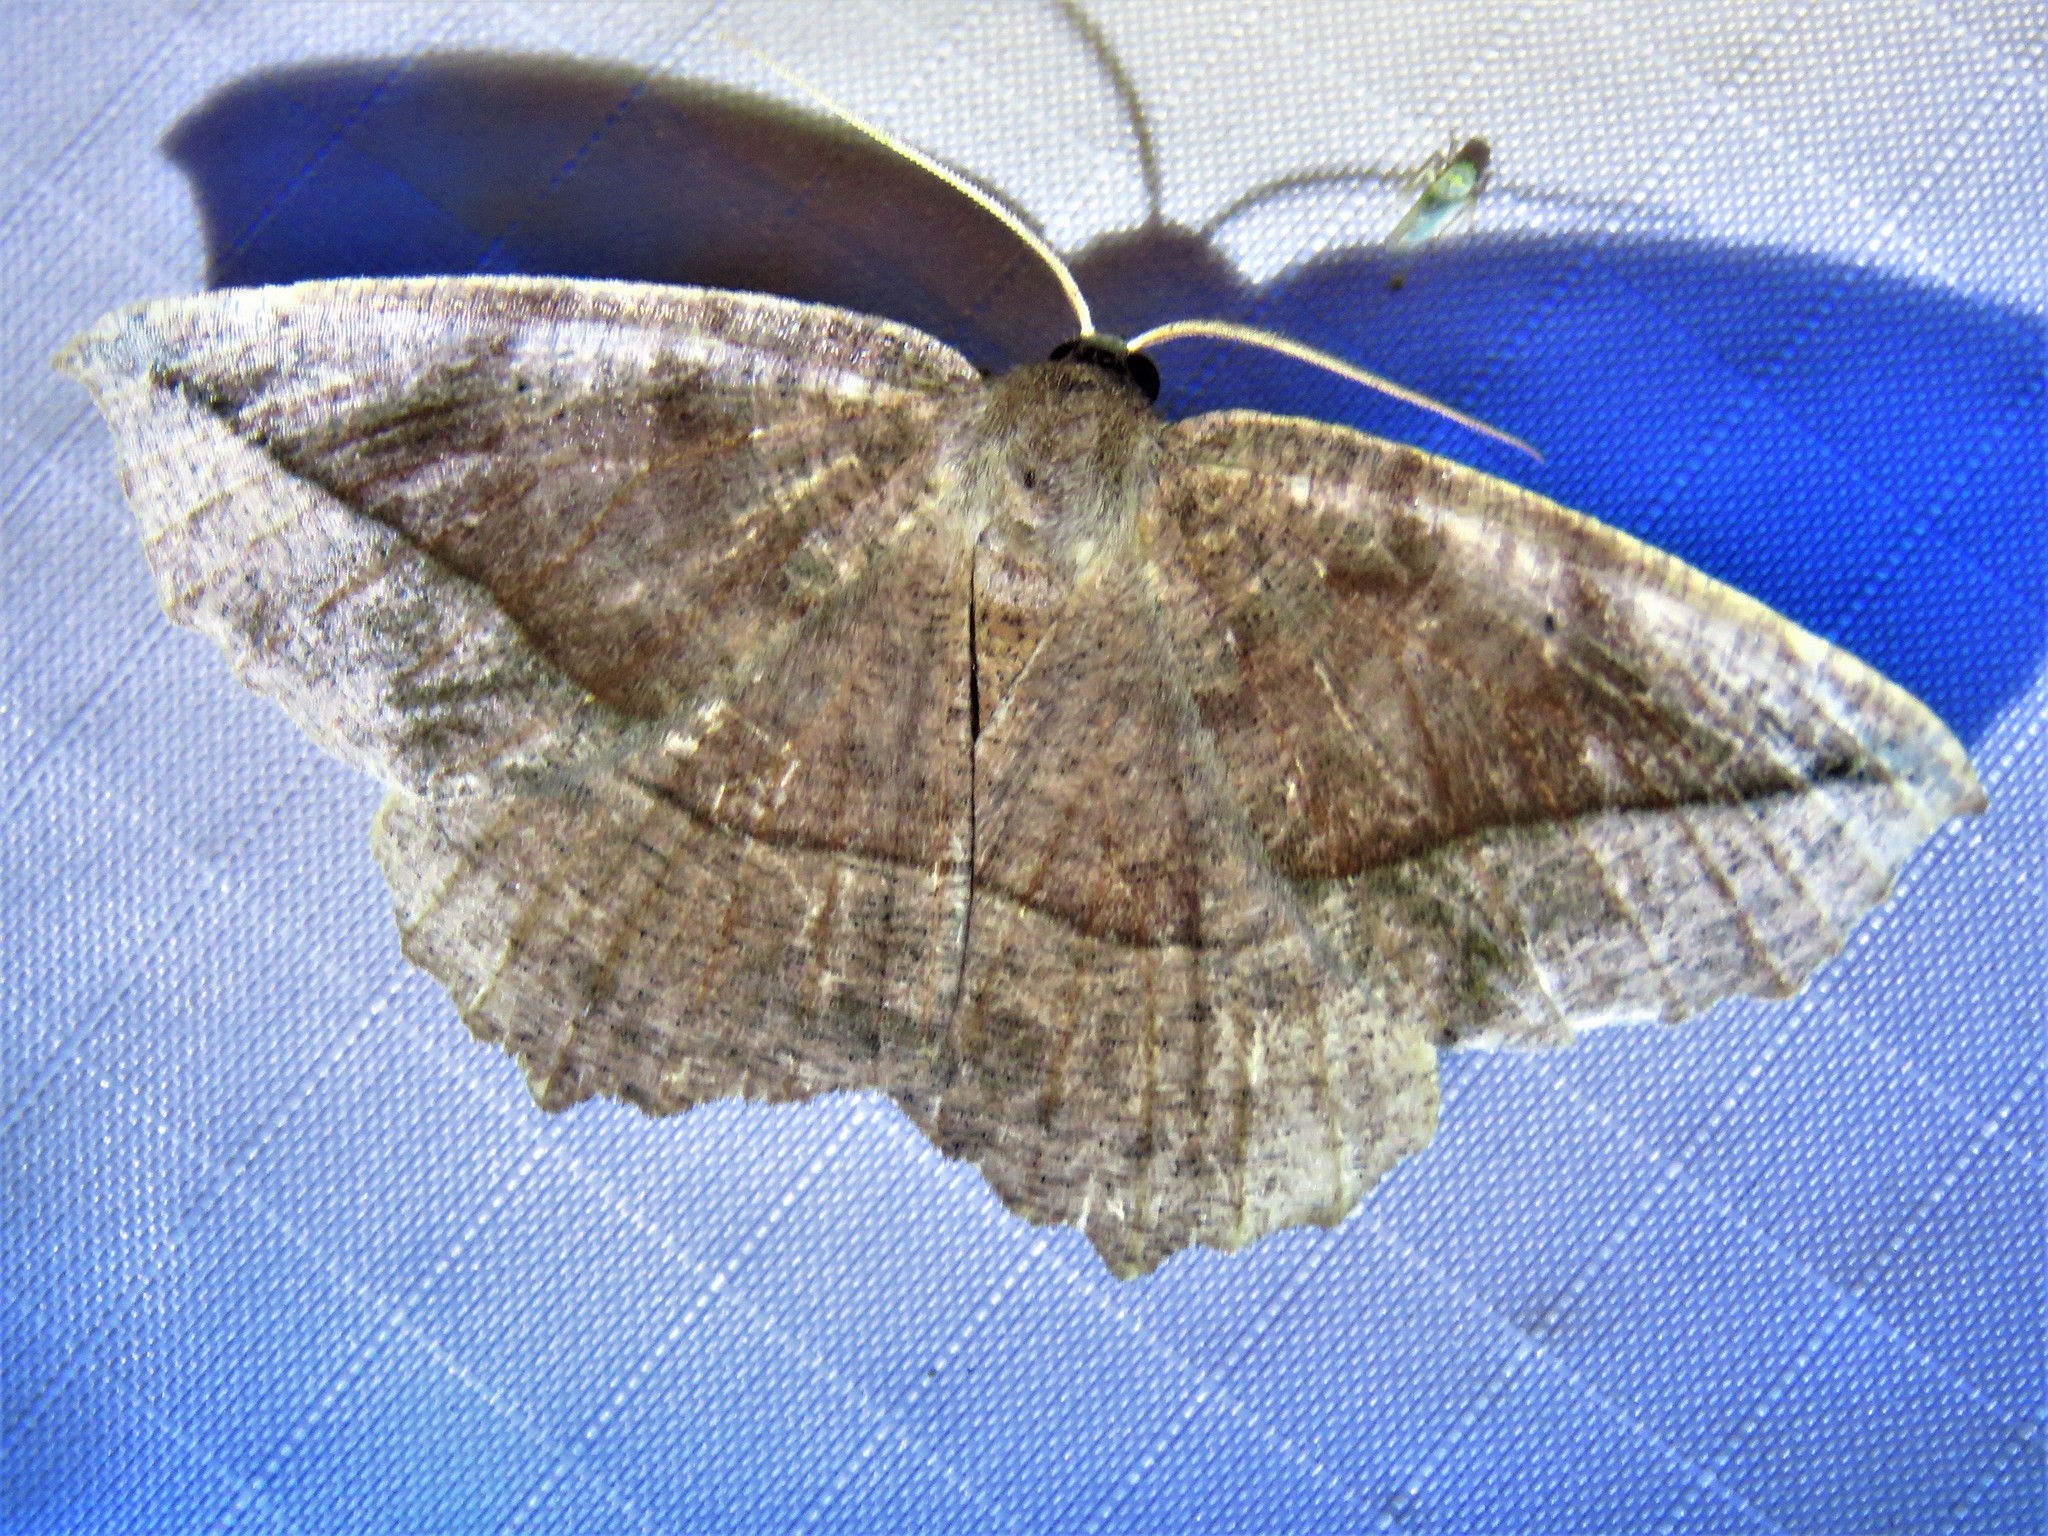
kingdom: Animalia
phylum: Arthropoda
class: Insecta
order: Lepidoptera
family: Geometridae
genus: Prochoerodes
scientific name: Prochoerodes lineola
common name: Large maple spanworm
